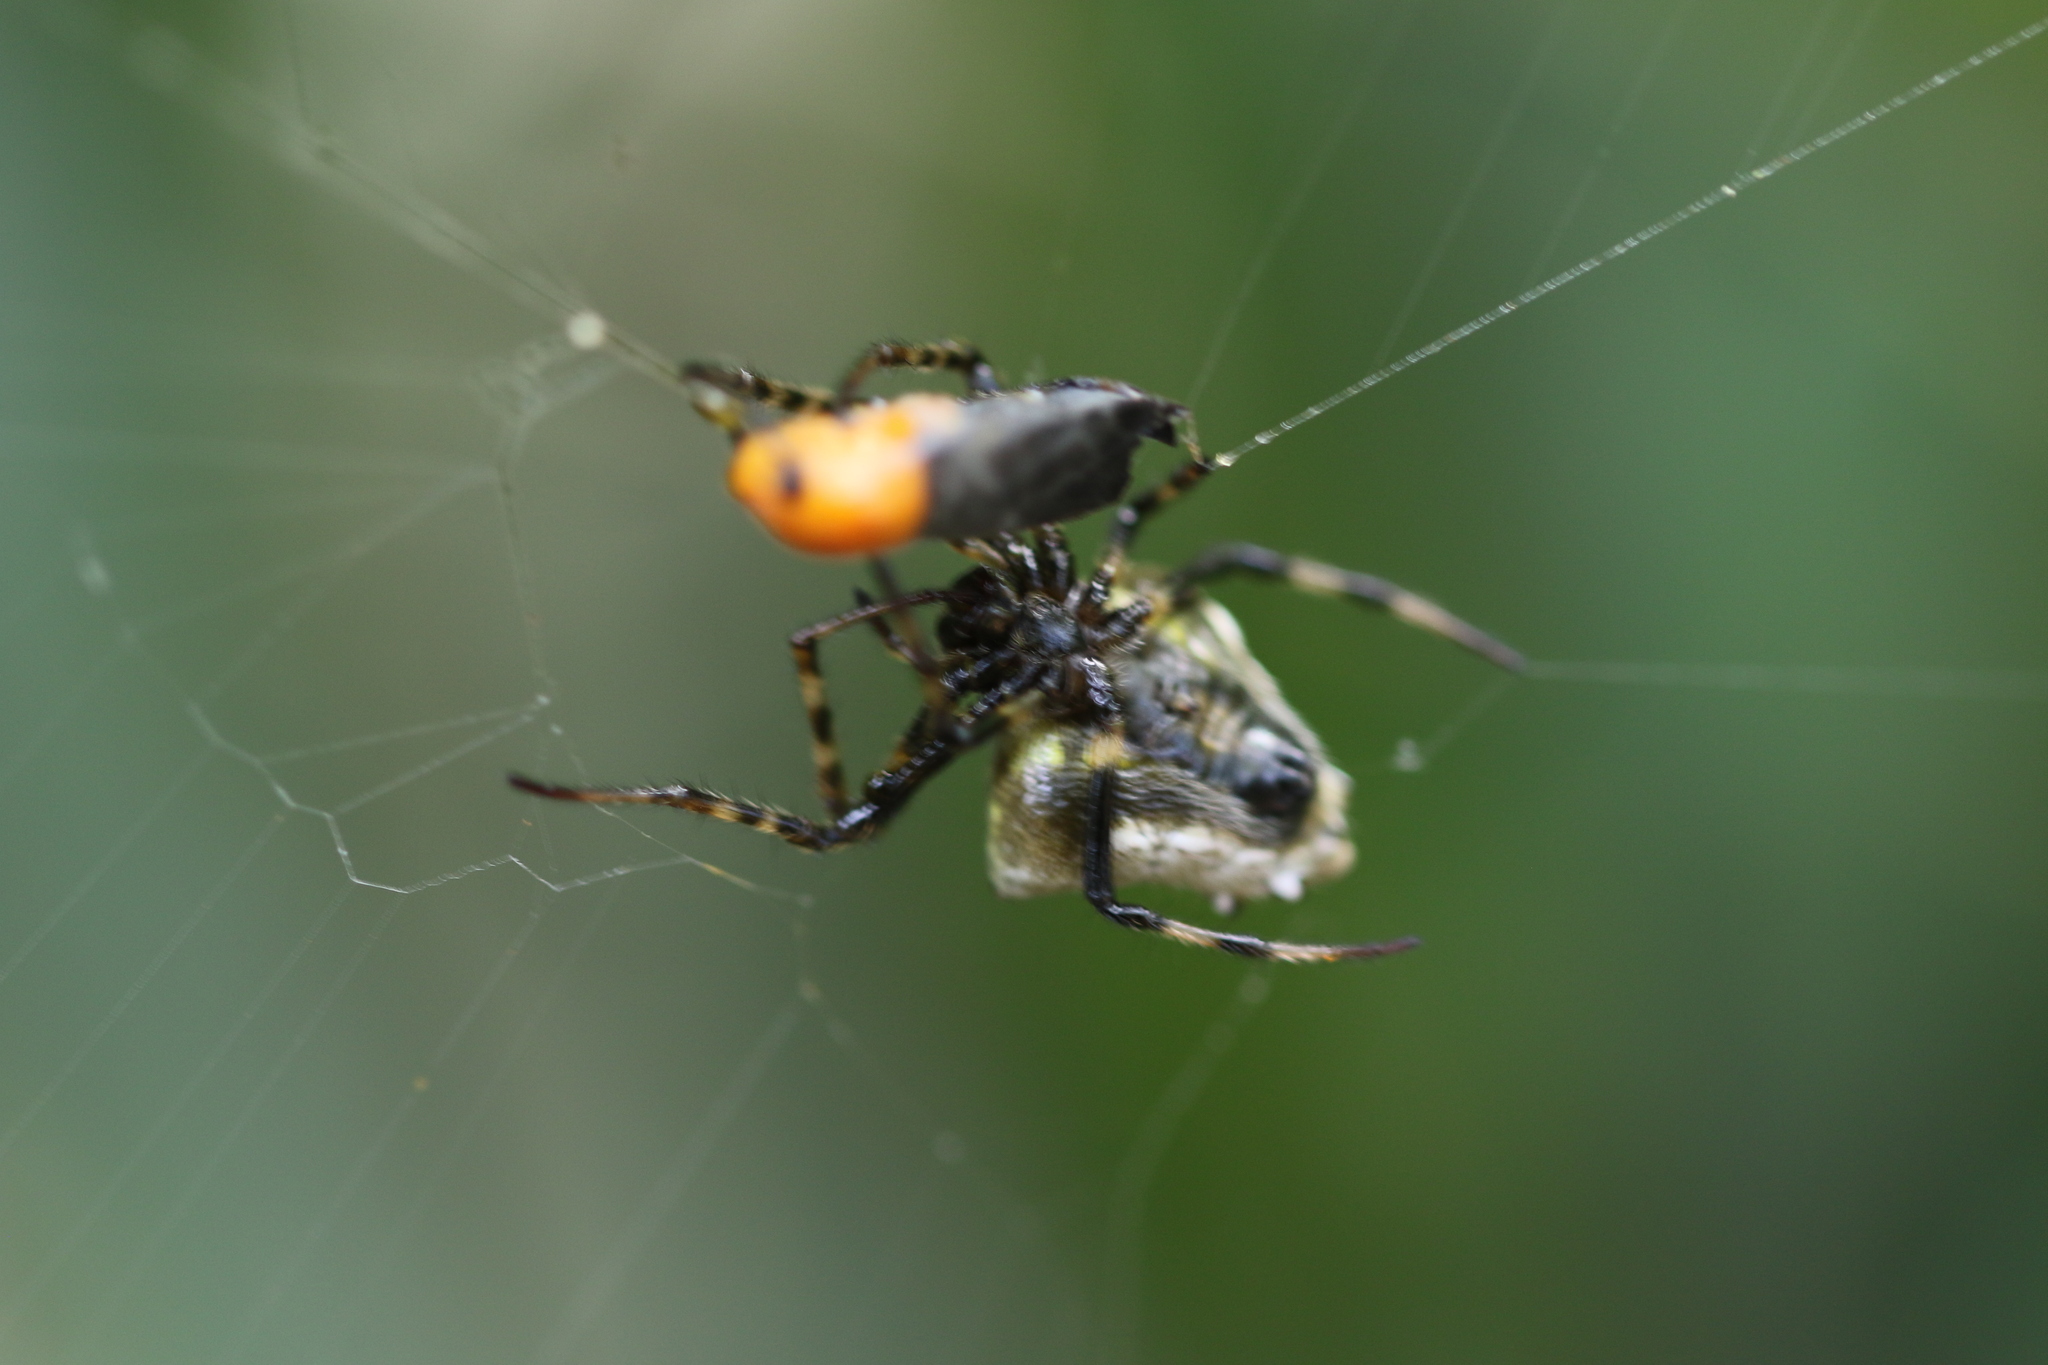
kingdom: Animalia
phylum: Arthropoda
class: Arachnida
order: Araneae
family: Araneidae
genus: Verrucosa
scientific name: Verrucosa scapofracta
